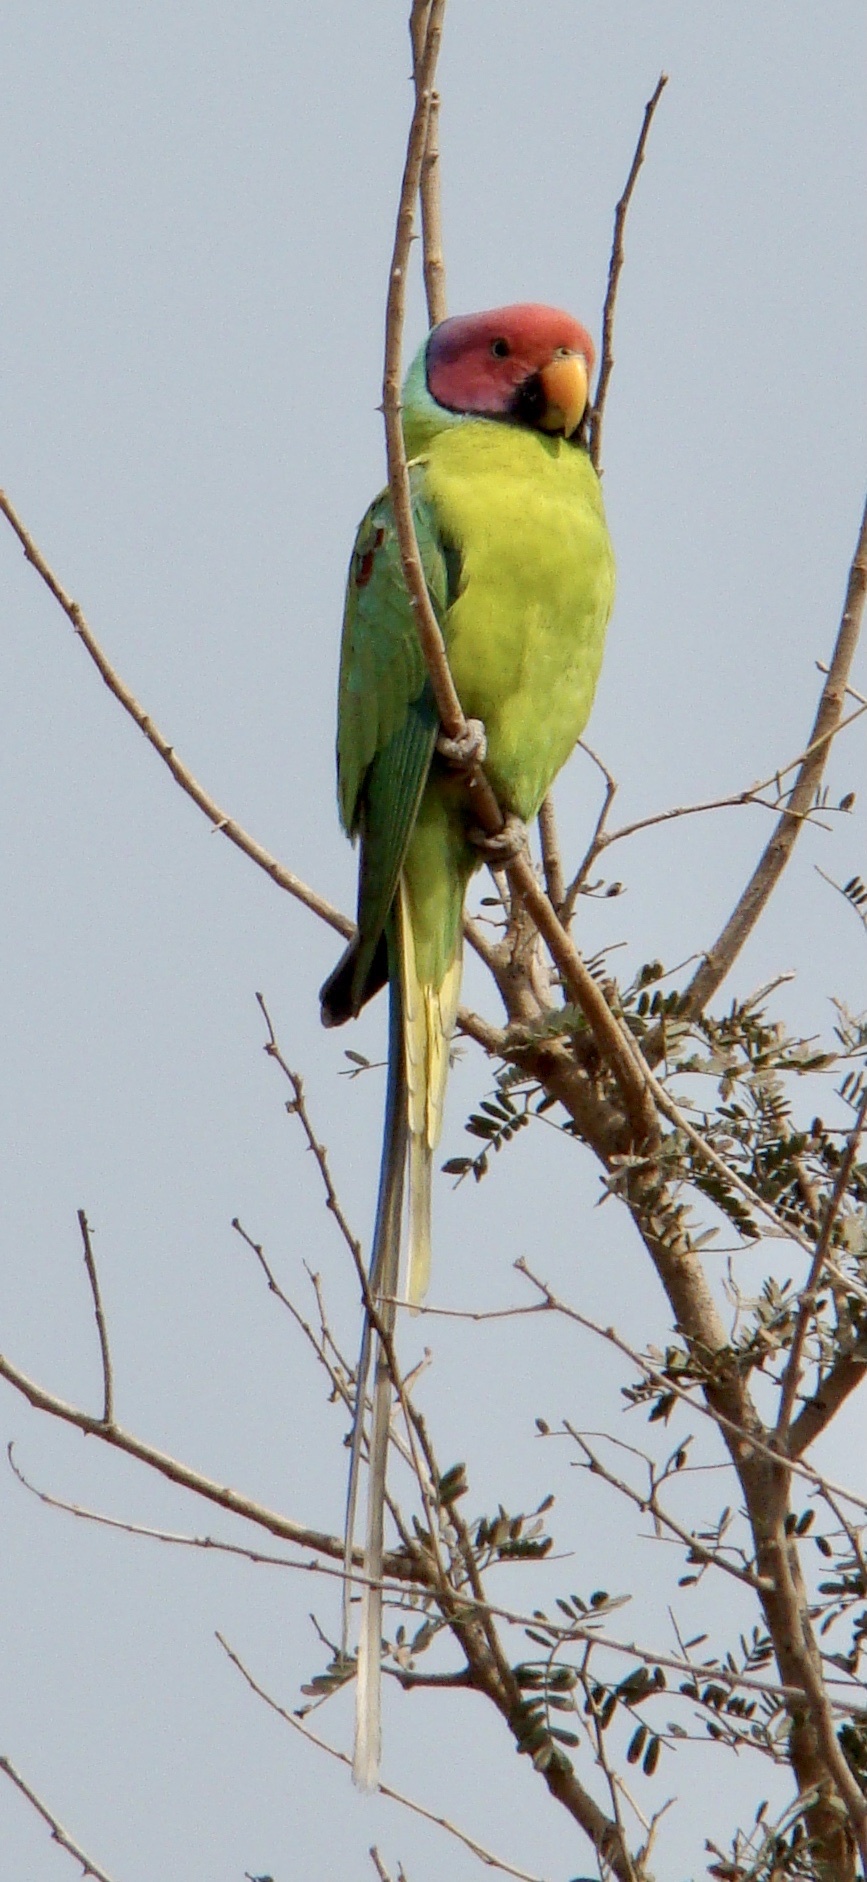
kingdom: Animalia
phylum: Chordata
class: Aves
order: Psittaciformes
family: Psittacidae
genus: Psittacula
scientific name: Psittacula cyanocephala
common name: Plum-headed parakeet
